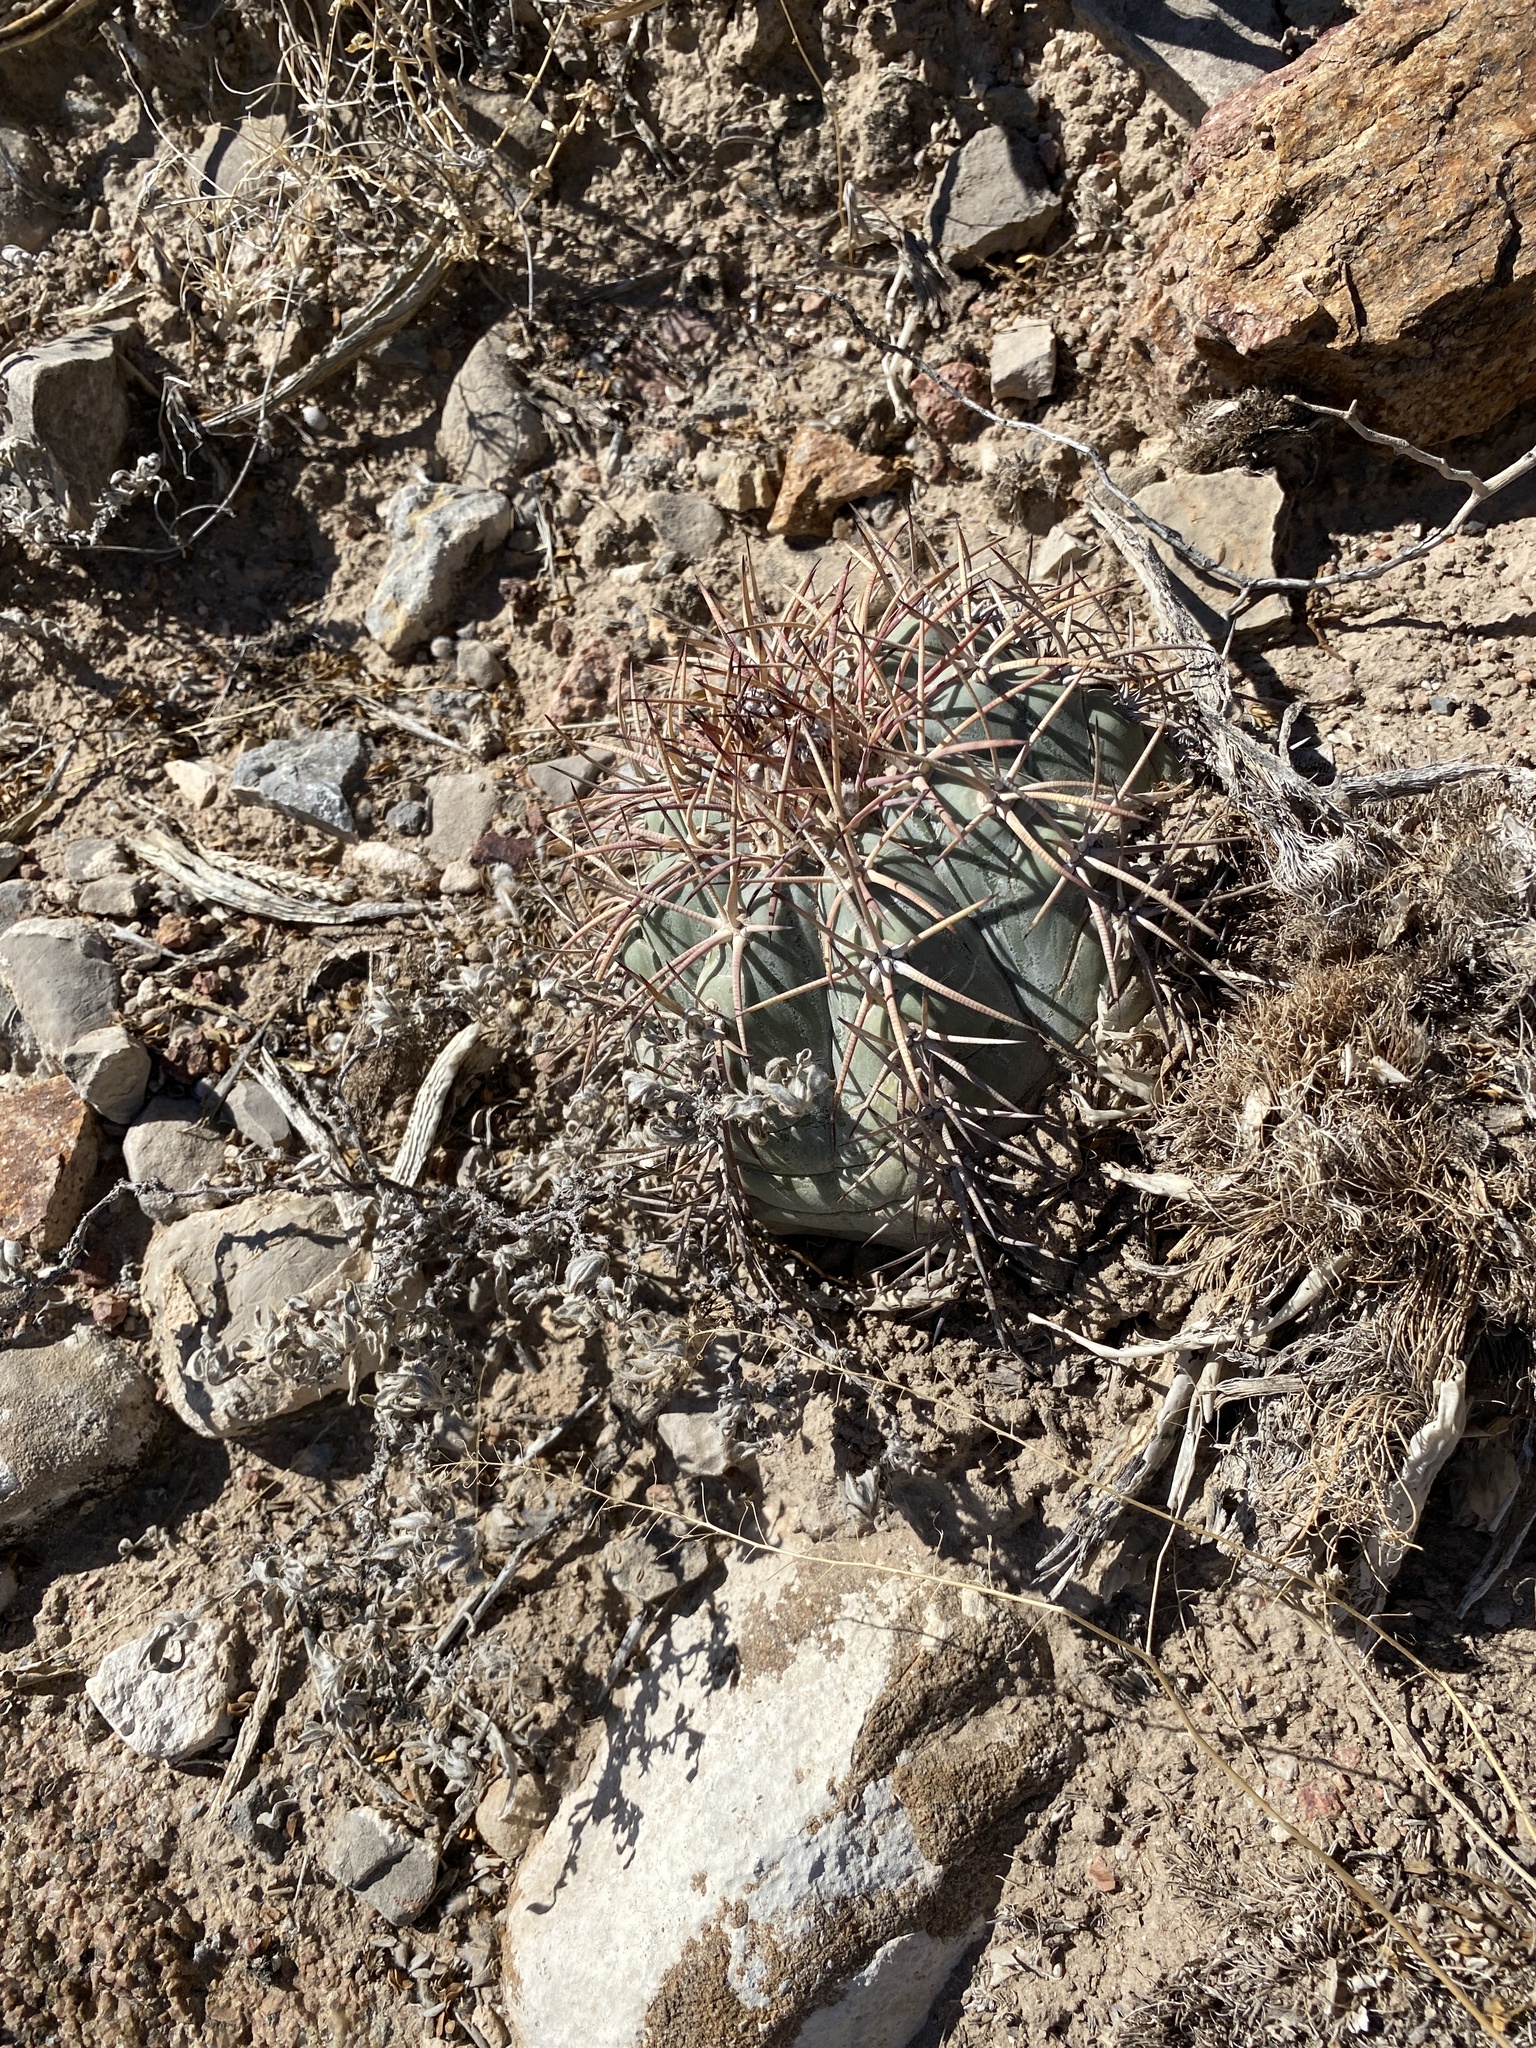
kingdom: Plantae
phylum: Tracheophyta
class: Magnoliopsida
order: Caryophyllales
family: Cactaceae
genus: Echinocactus
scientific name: Echinocactus horizonthalonius
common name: Devilshead
